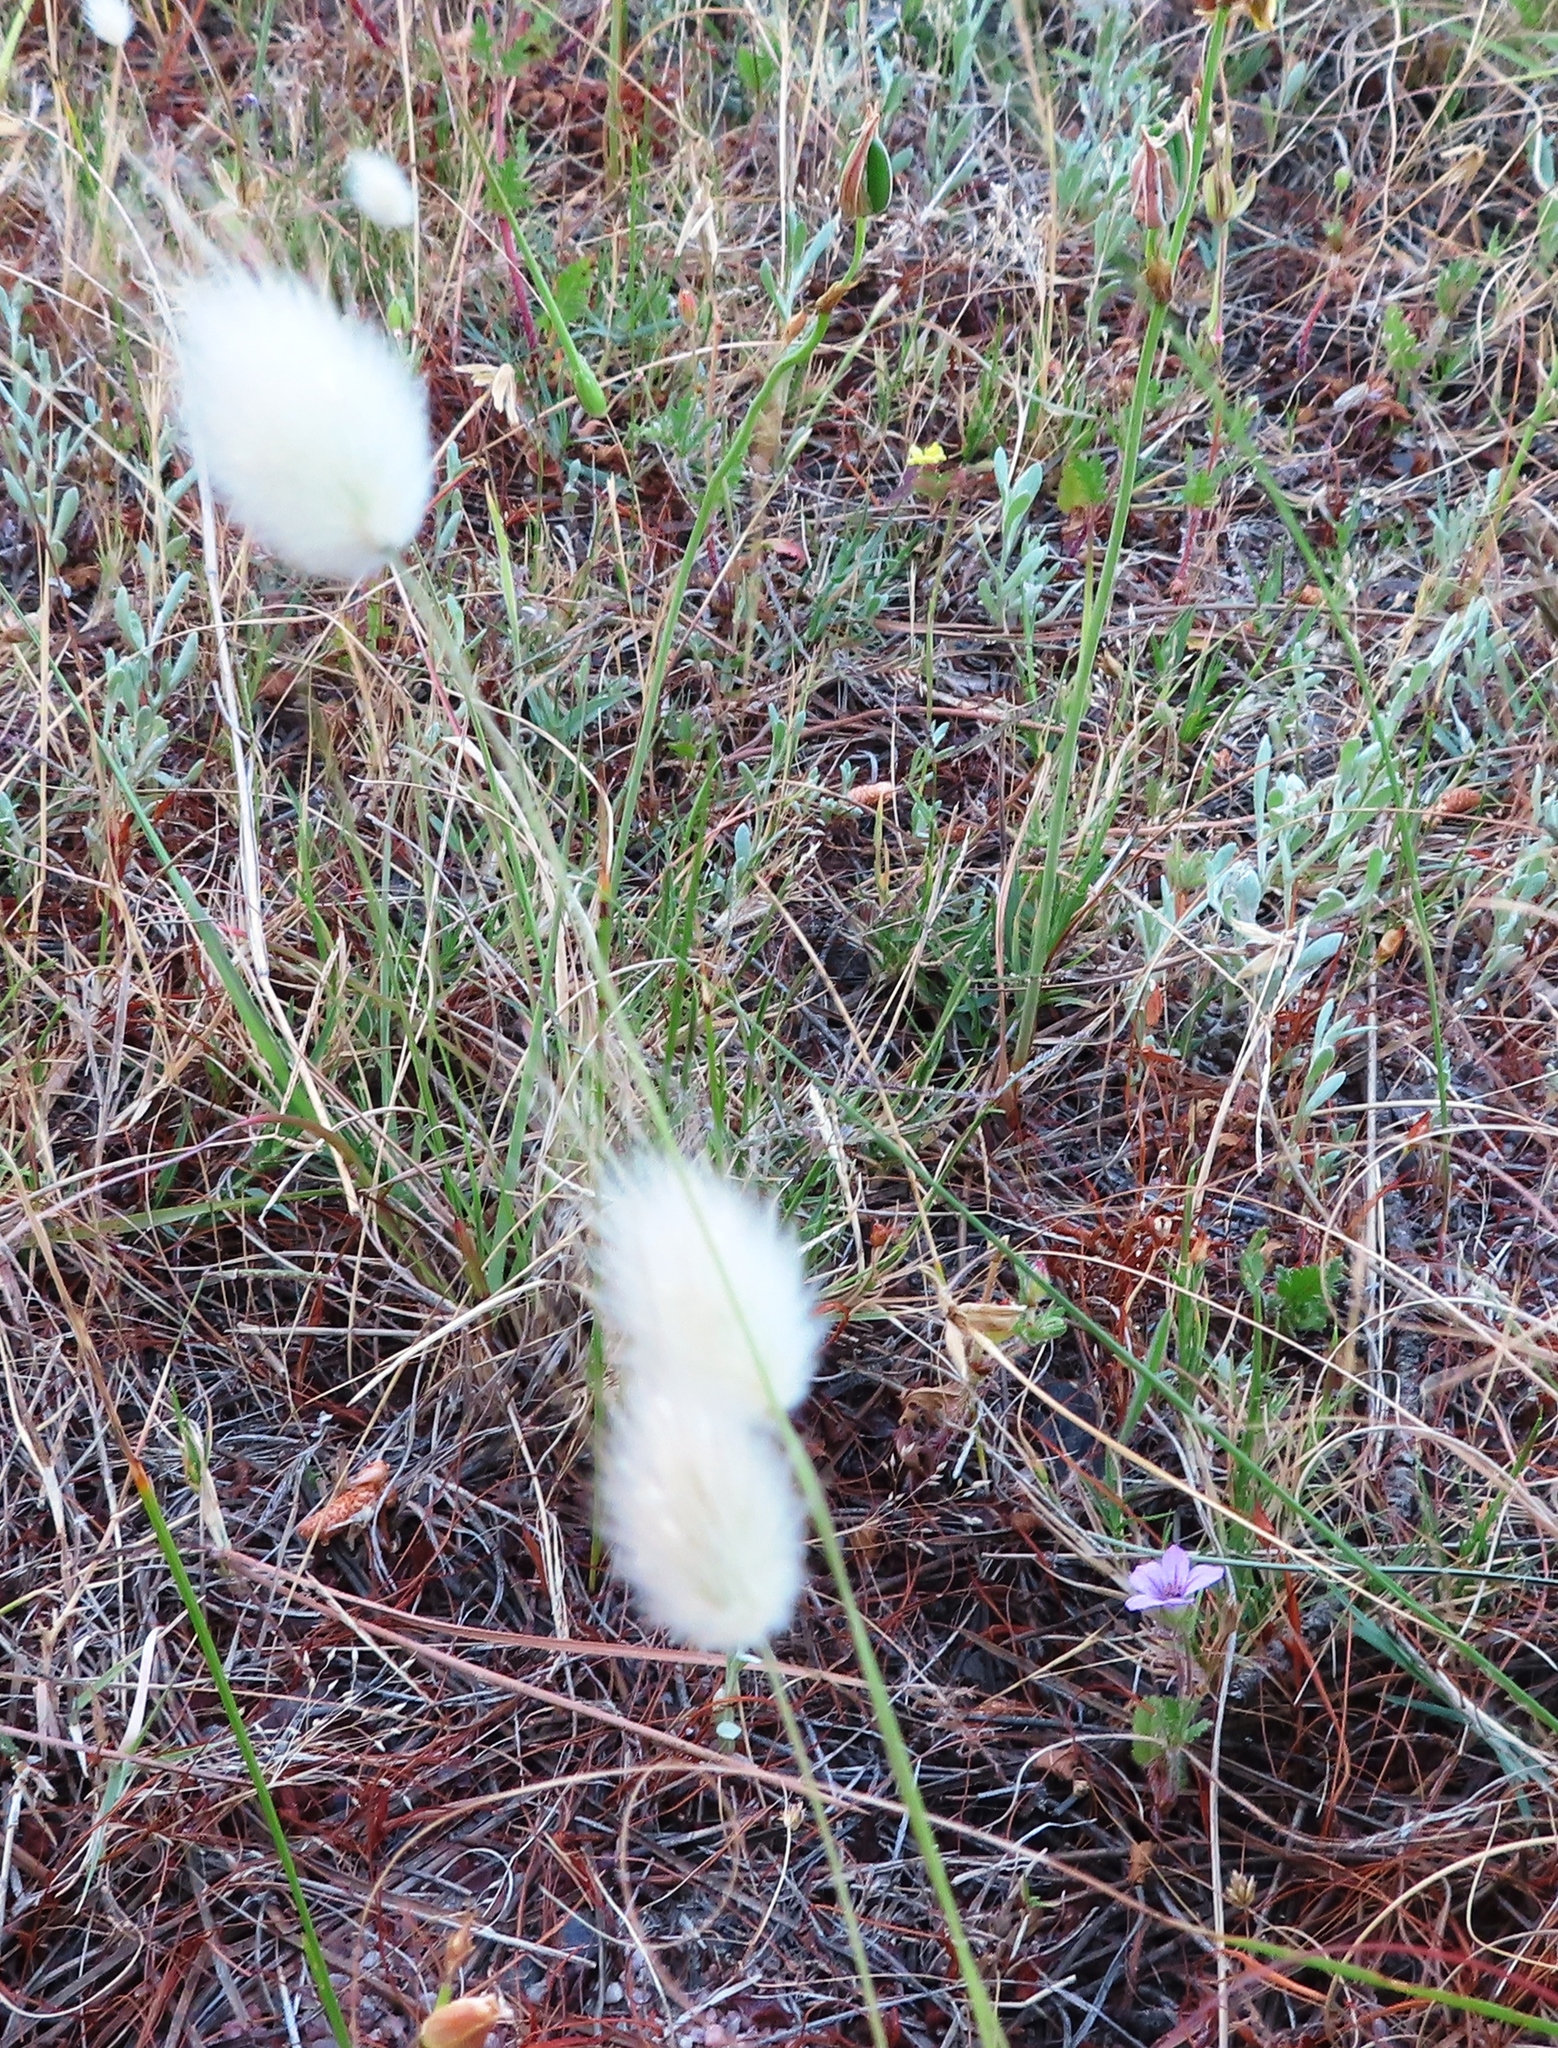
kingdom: Plantae
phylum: Tracheophyta
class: Liliopsida
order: Poales
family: Poaceae
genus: Lagurus
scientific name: Lagurus ovatus
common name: Hare's-tail
